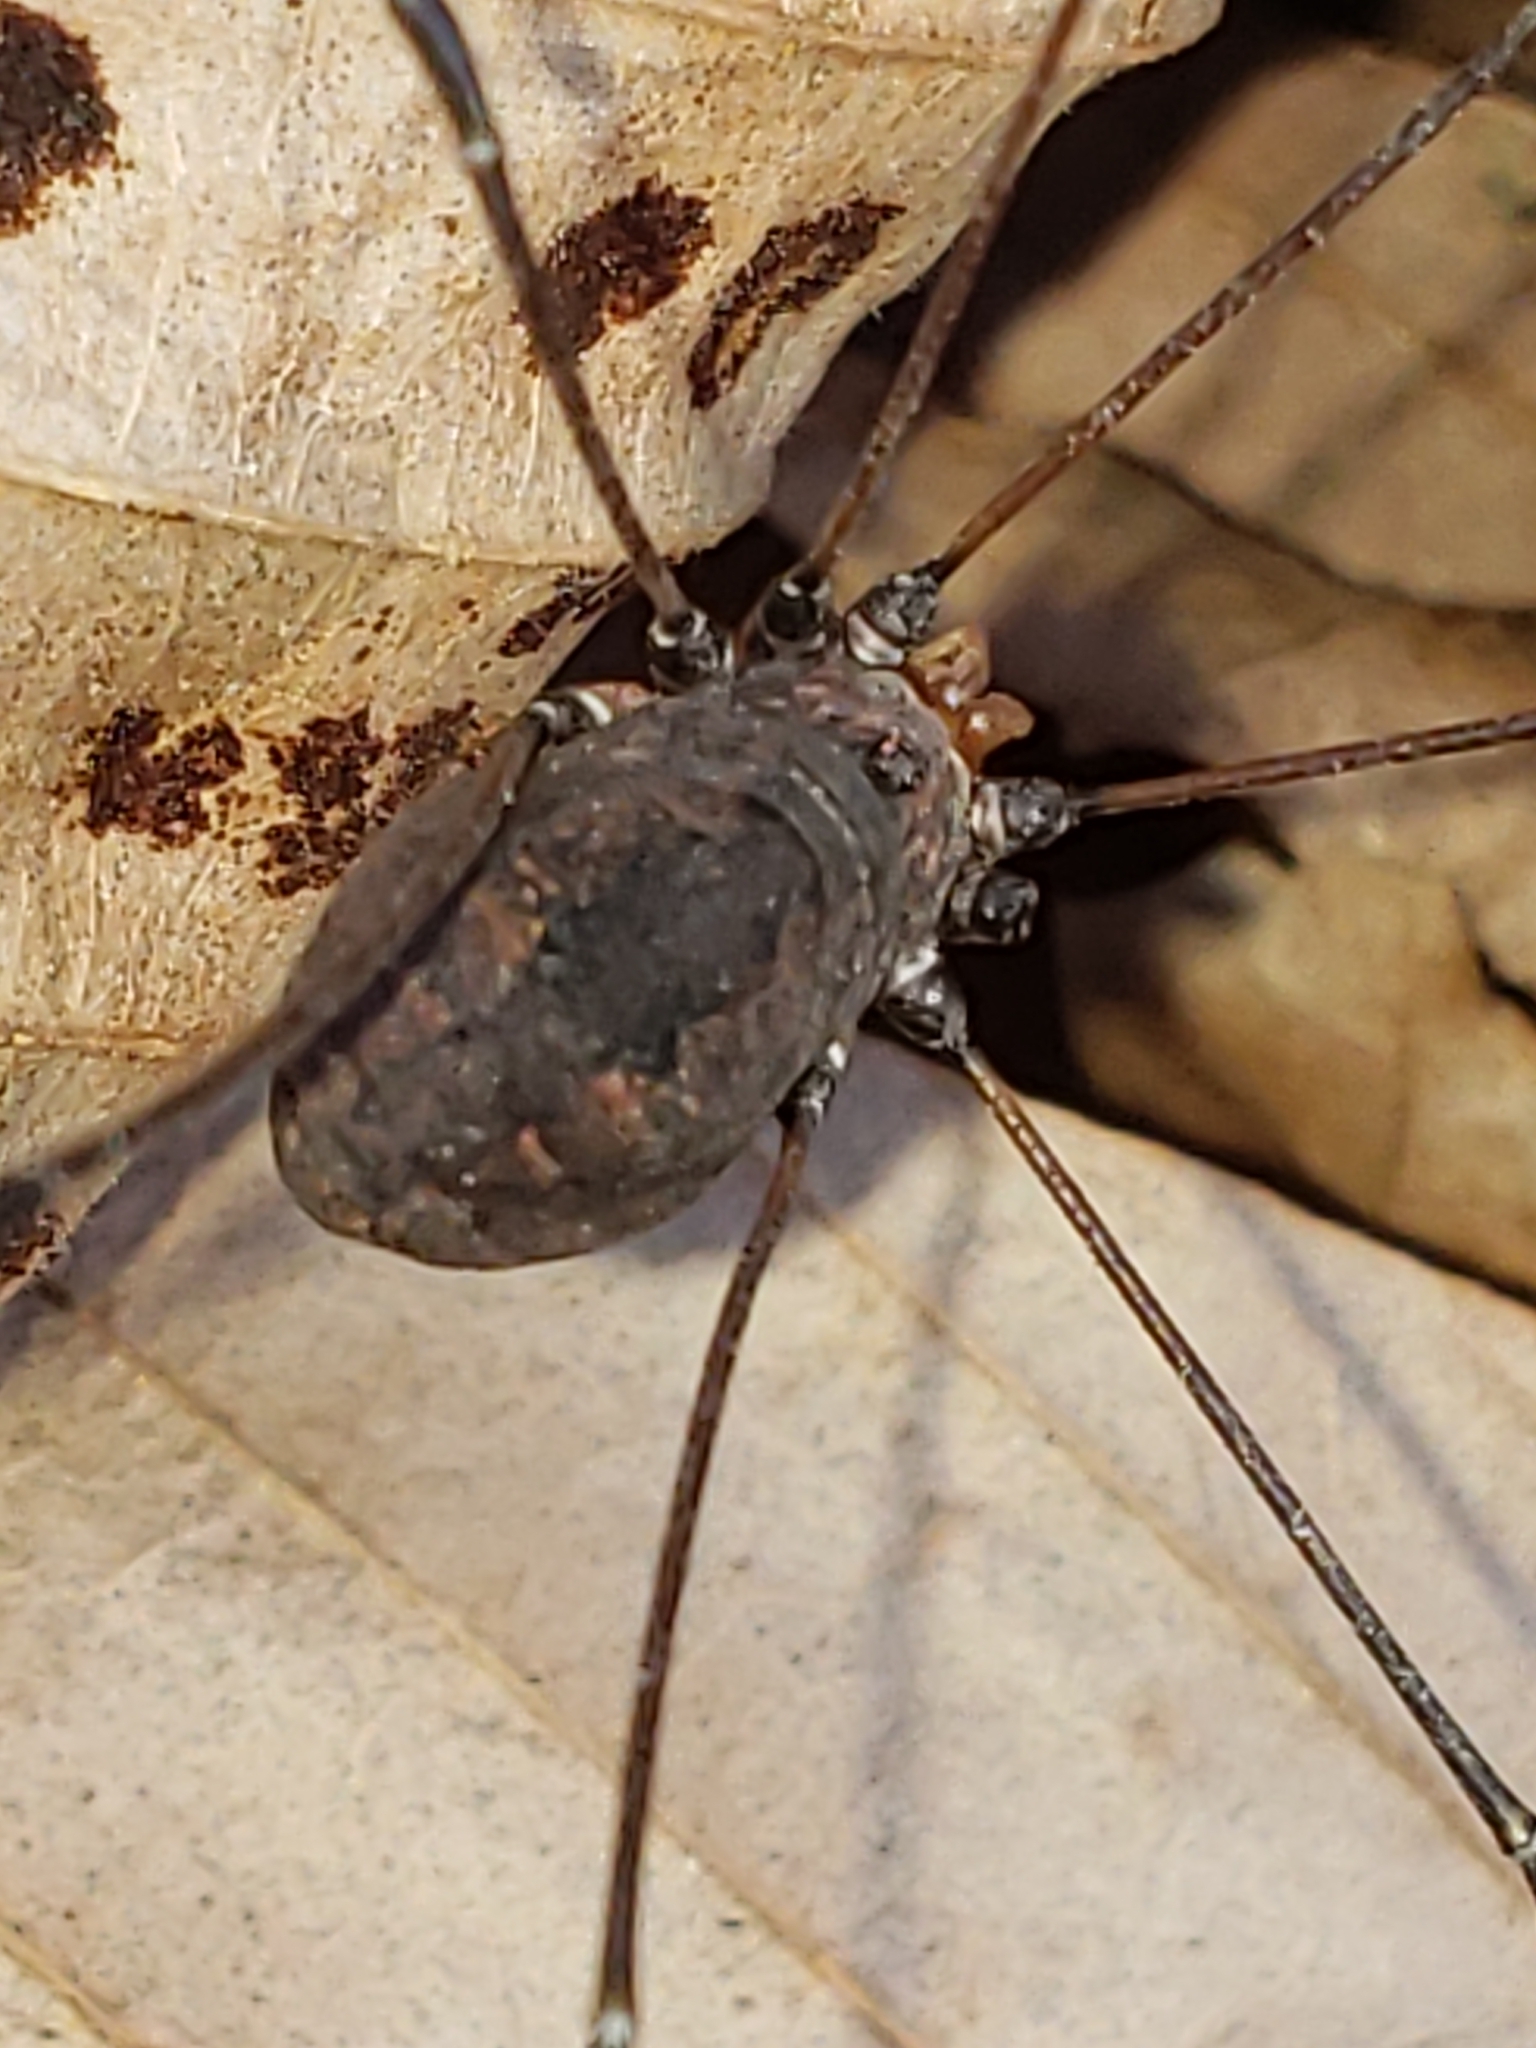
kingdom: Animalia
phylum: Arthropoda
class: Arachnida
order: Opiliones
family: Sclerosomatidae
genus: Leiobunum
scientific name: Leiobunum vittatum
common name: Eastern harvestman
